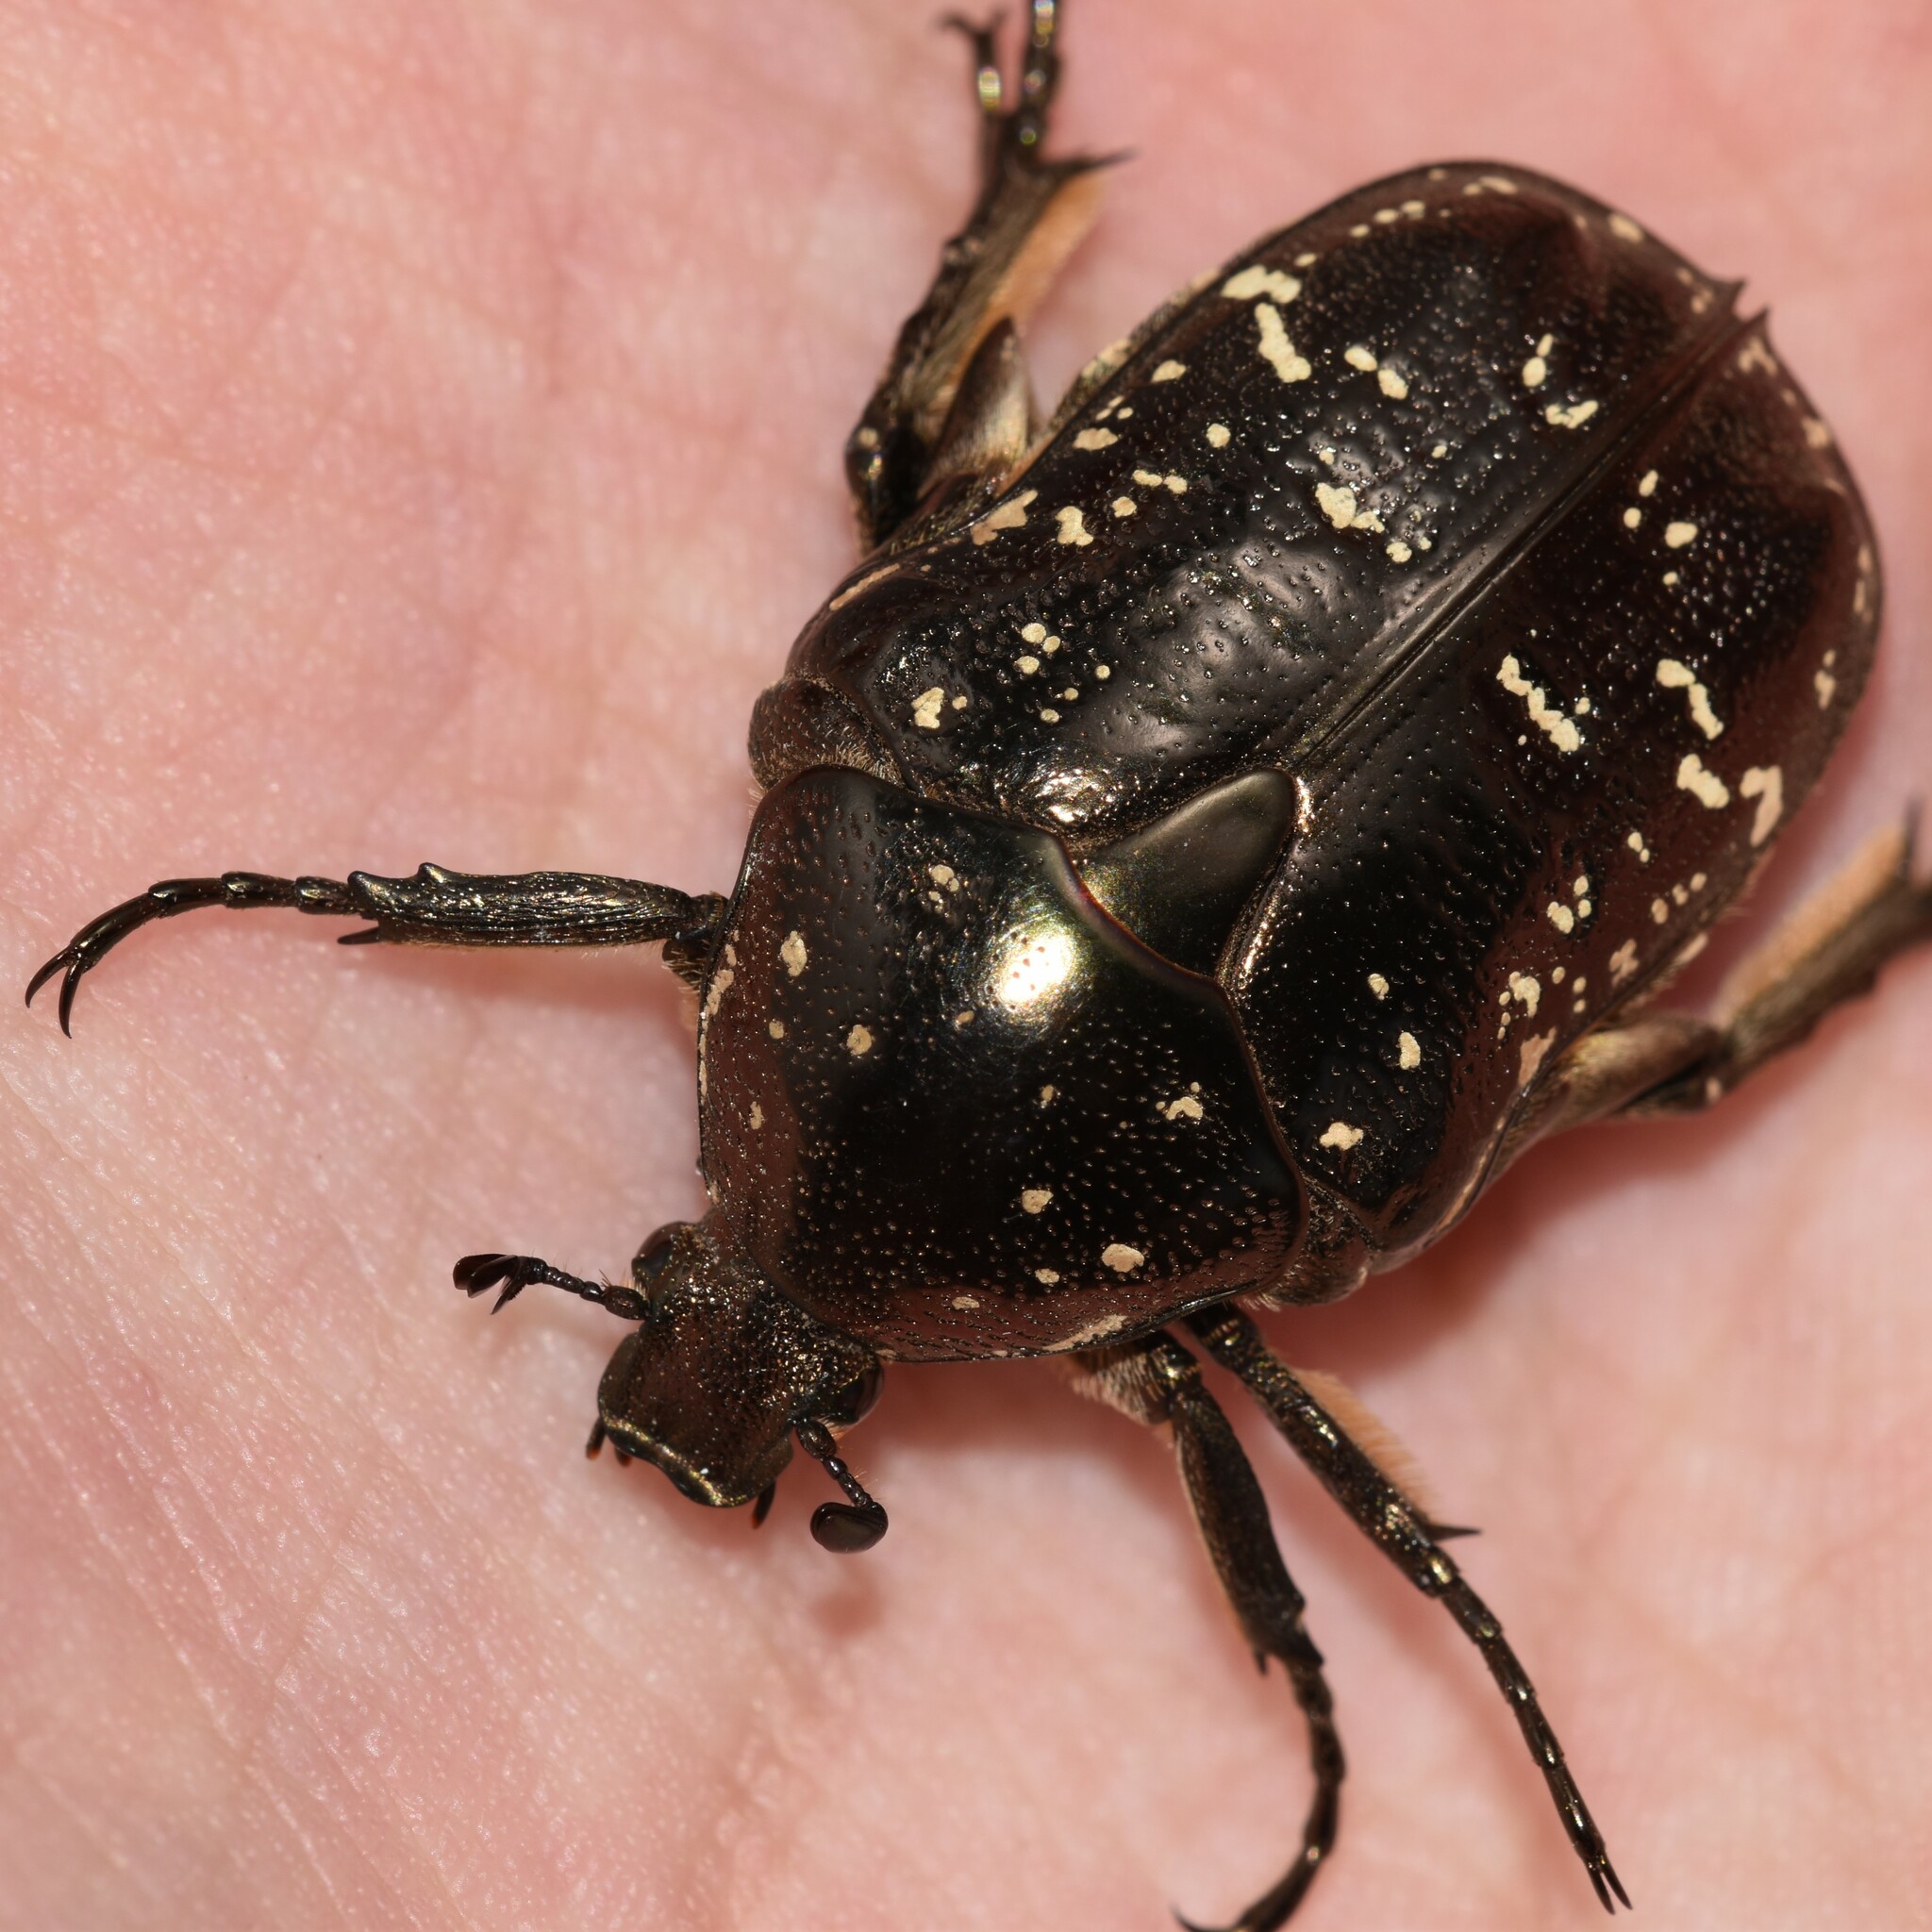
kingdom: Animalia
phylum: Arthropoda
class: Insecta
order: Coleoptera
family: Scarabaeidae
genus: Protaetia
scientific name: Protaetia orientalis
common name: Oriental flower beetle
